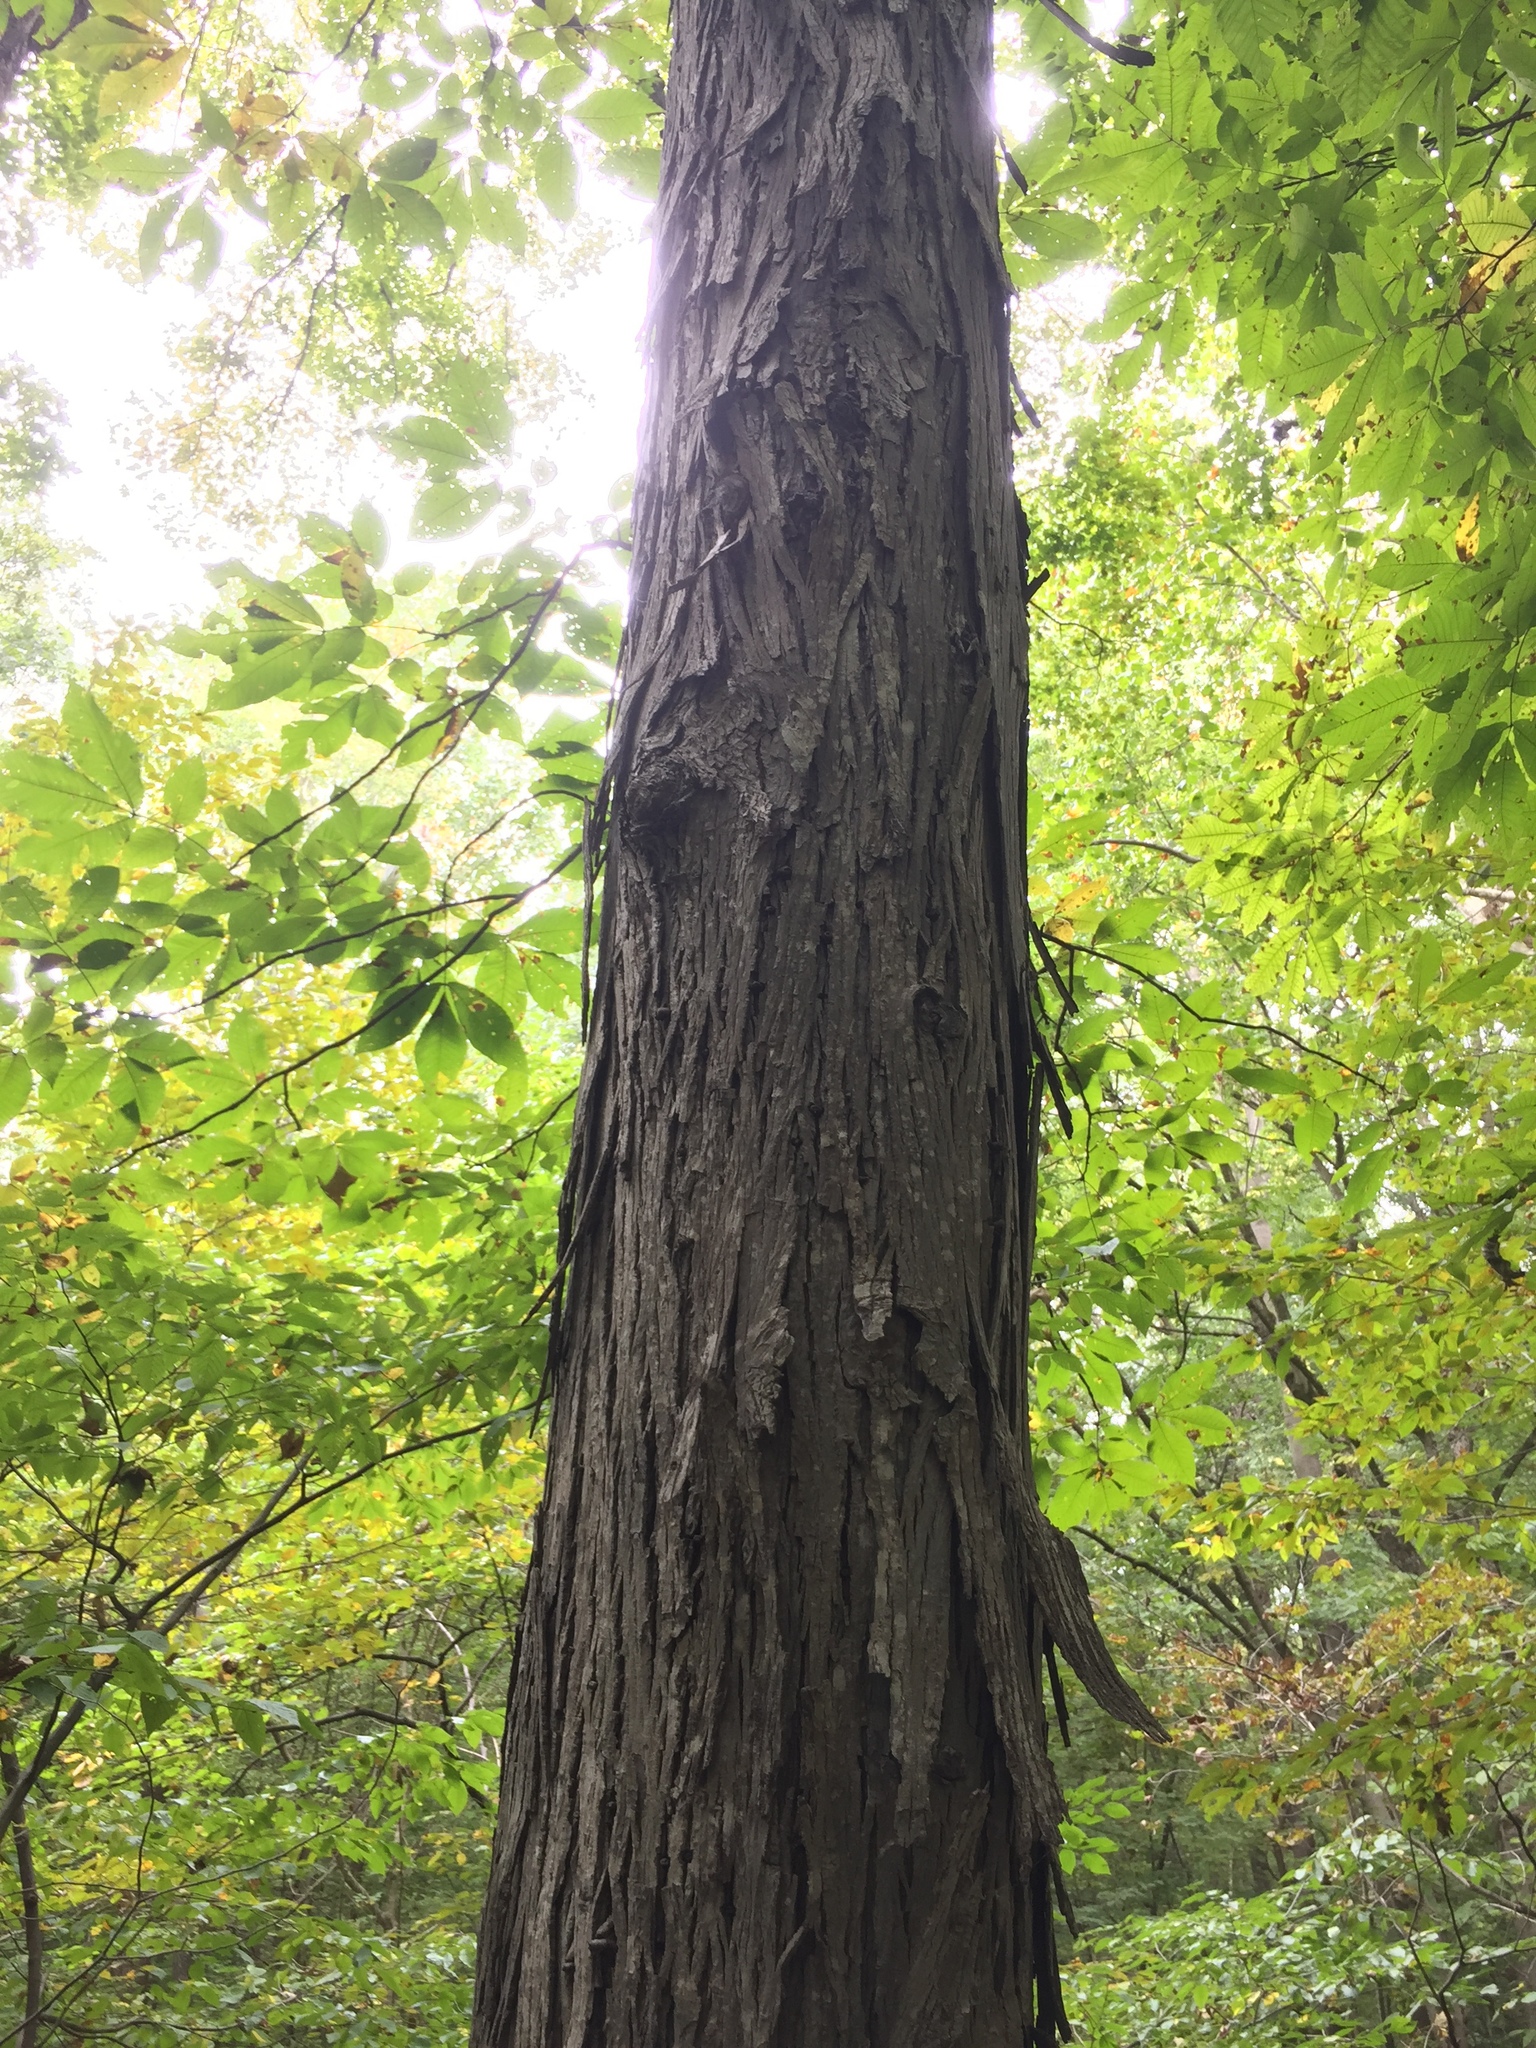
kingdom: Plantae
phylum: Tracheophyta
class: Magnoliopsida
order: Fagales
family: Juglandaceae
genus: Carya
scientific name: Carya ovata
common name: Shagbark hickory
